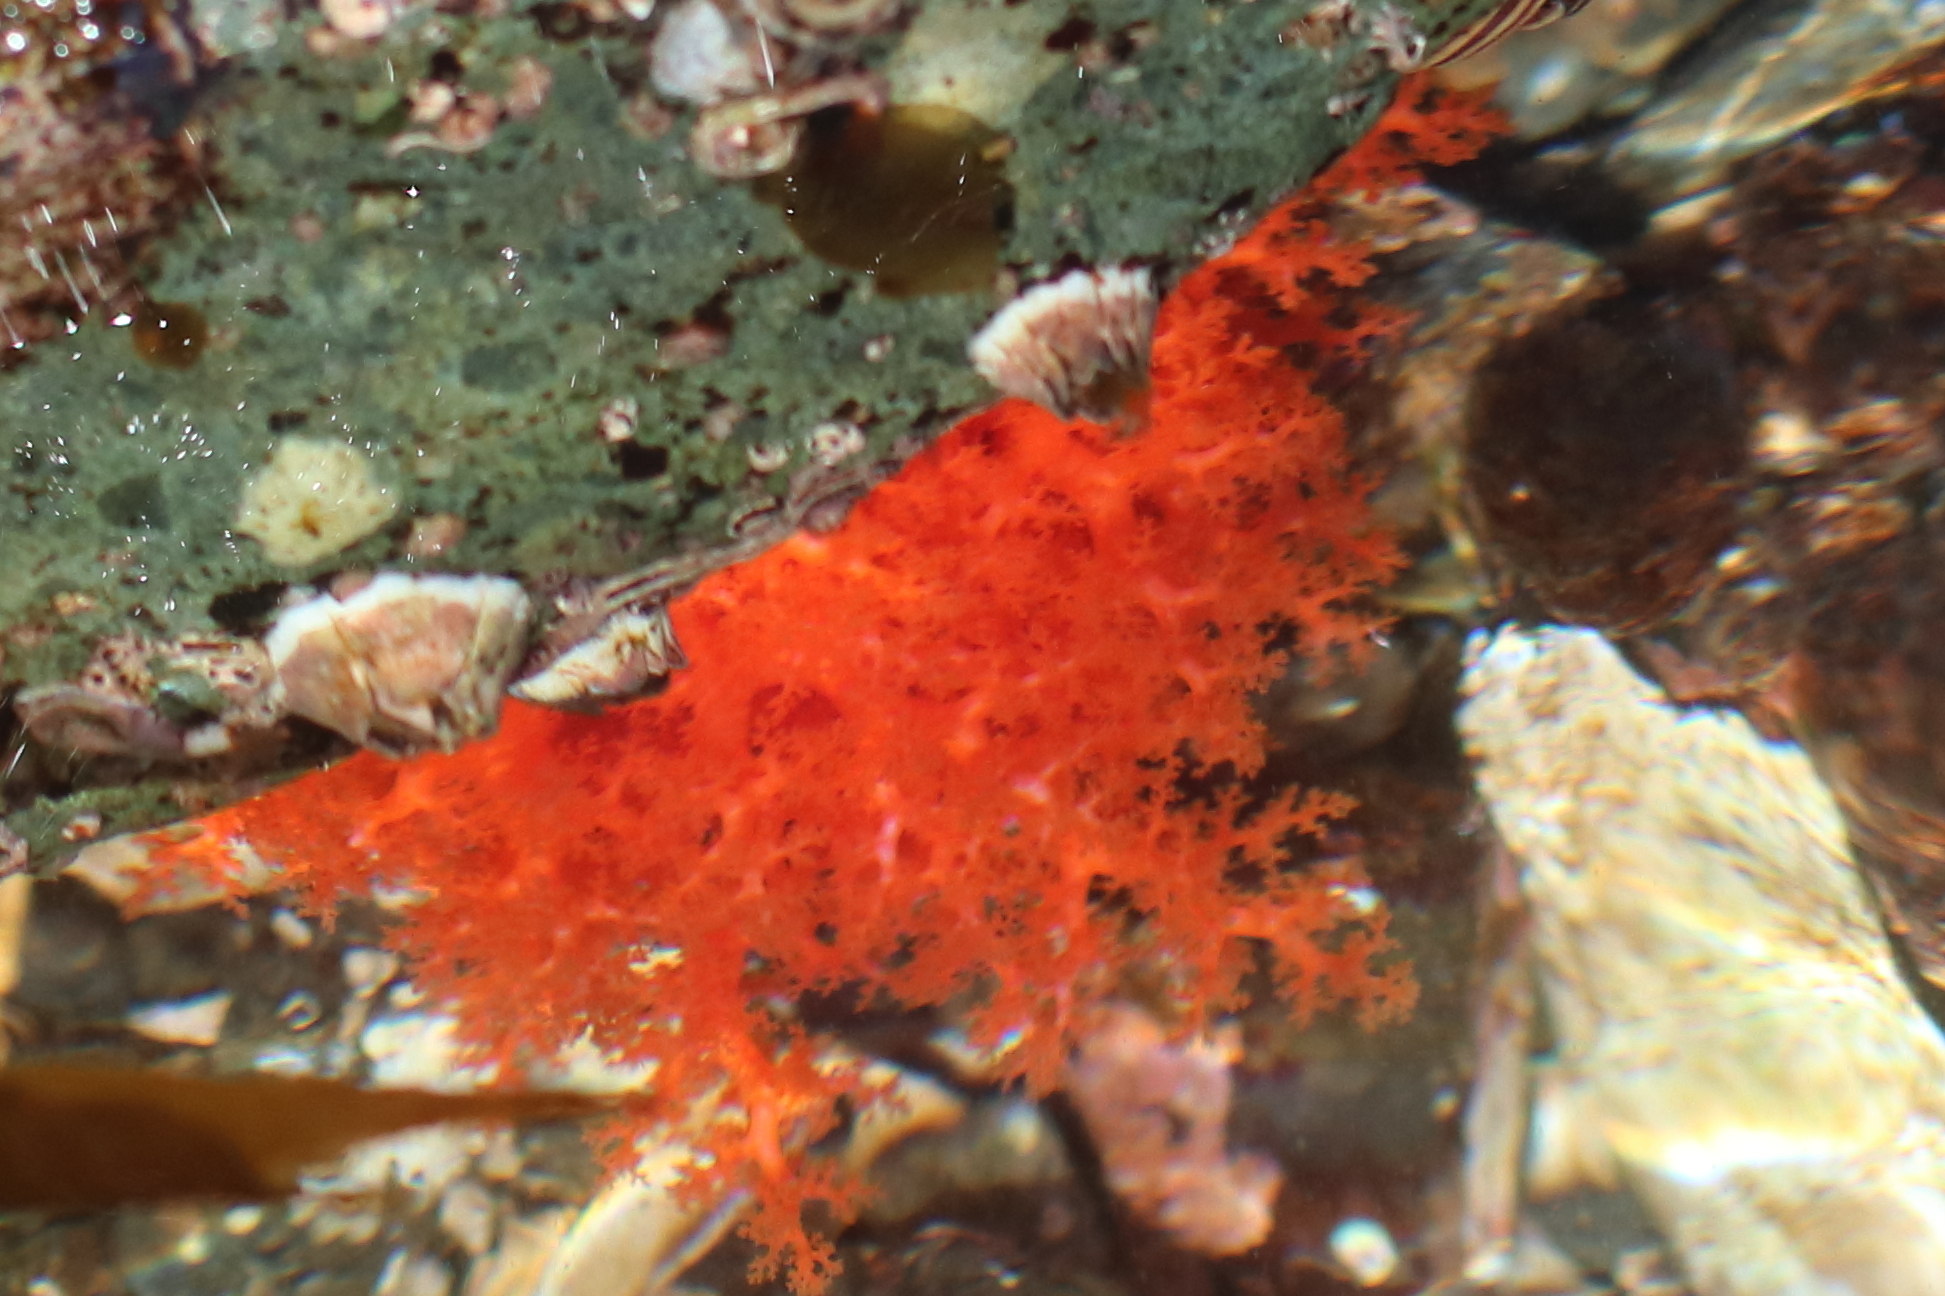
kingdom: Animalia
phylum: Echinodermata
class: Holothuroidea
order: Dendrochirotida
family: Cucumariidae
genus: Cucumaria
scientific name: Cucumaria miniata
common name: Orange sea cucumber
